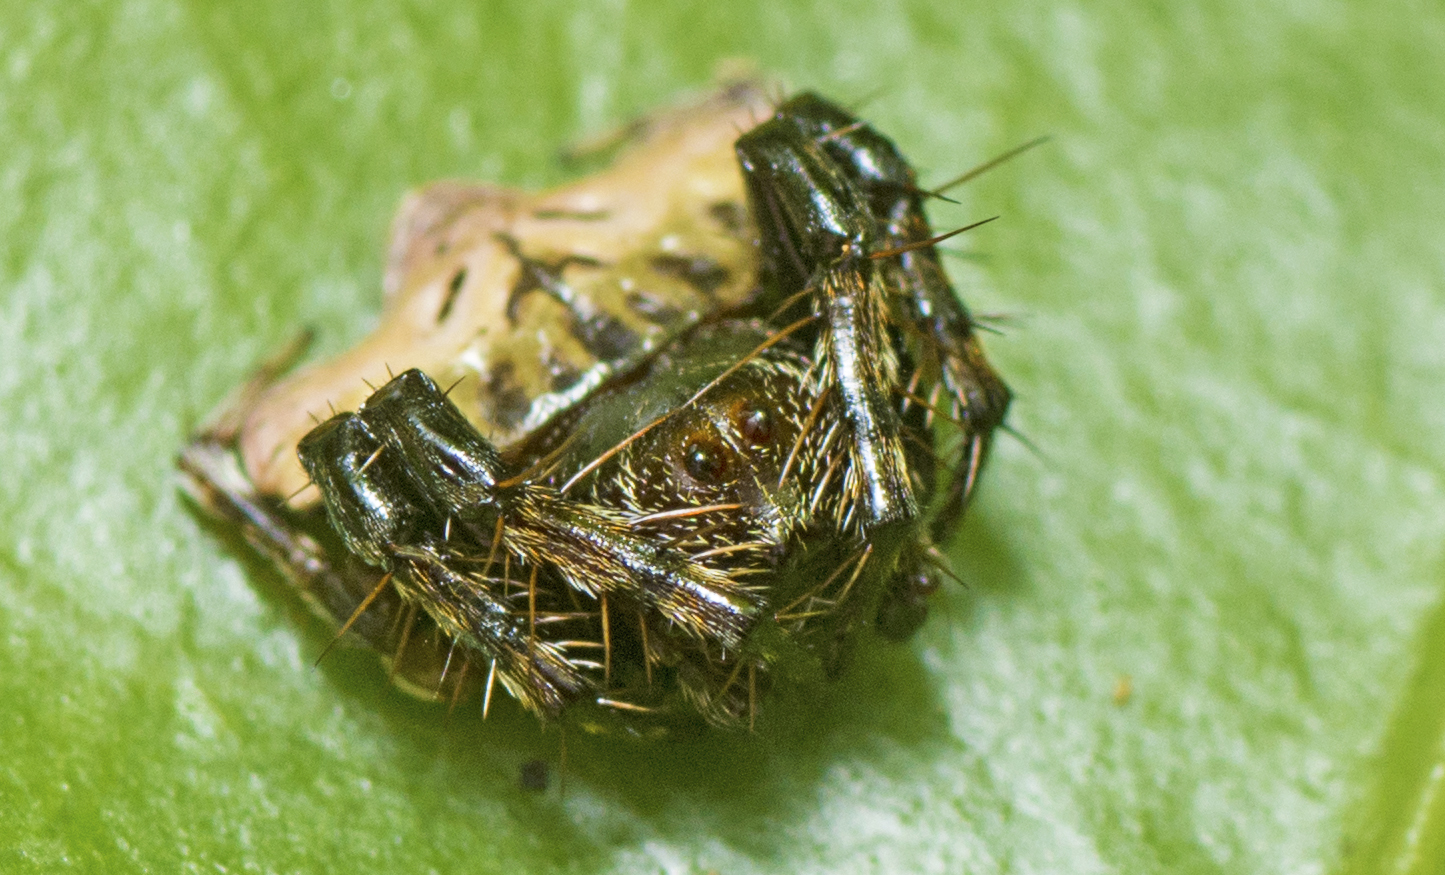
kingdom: Animalia
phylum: Arthropoda
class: Arachnida
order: Araneae
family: Arkyidae
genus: Arkys
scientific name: Arkys speechleyi
